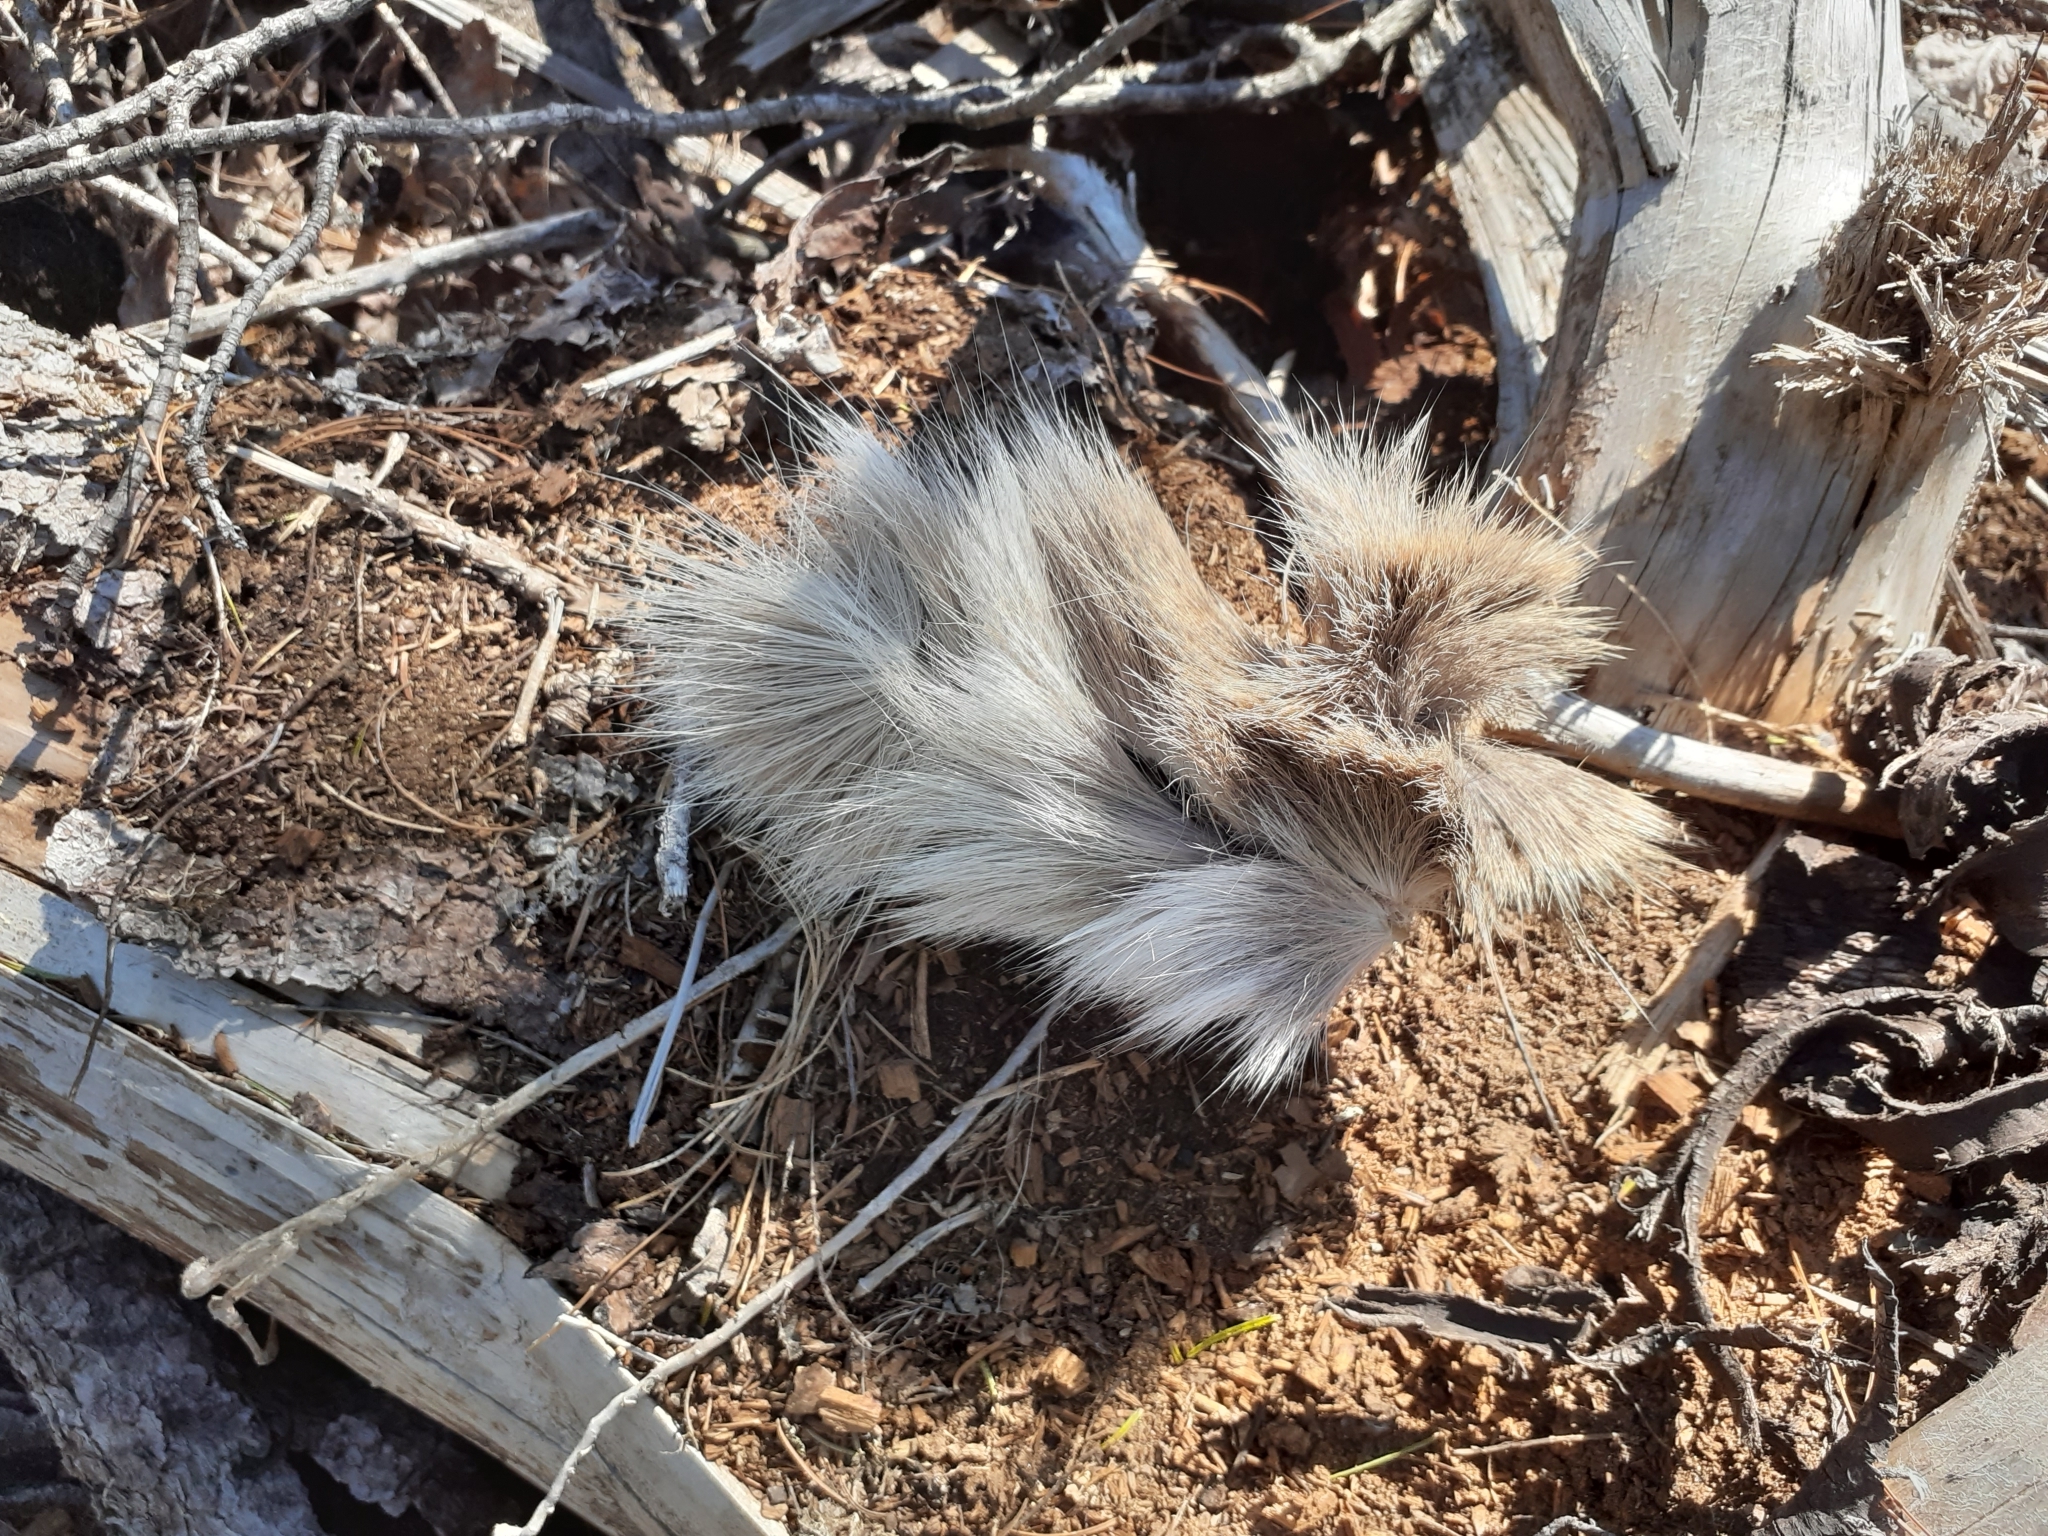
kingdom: Animalia
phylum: Chordata
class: Mammalia
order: Artiodactyla
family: Cervidae
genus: Odocoileus
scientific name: Odocoileus virginianus
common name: White-tailed deer
